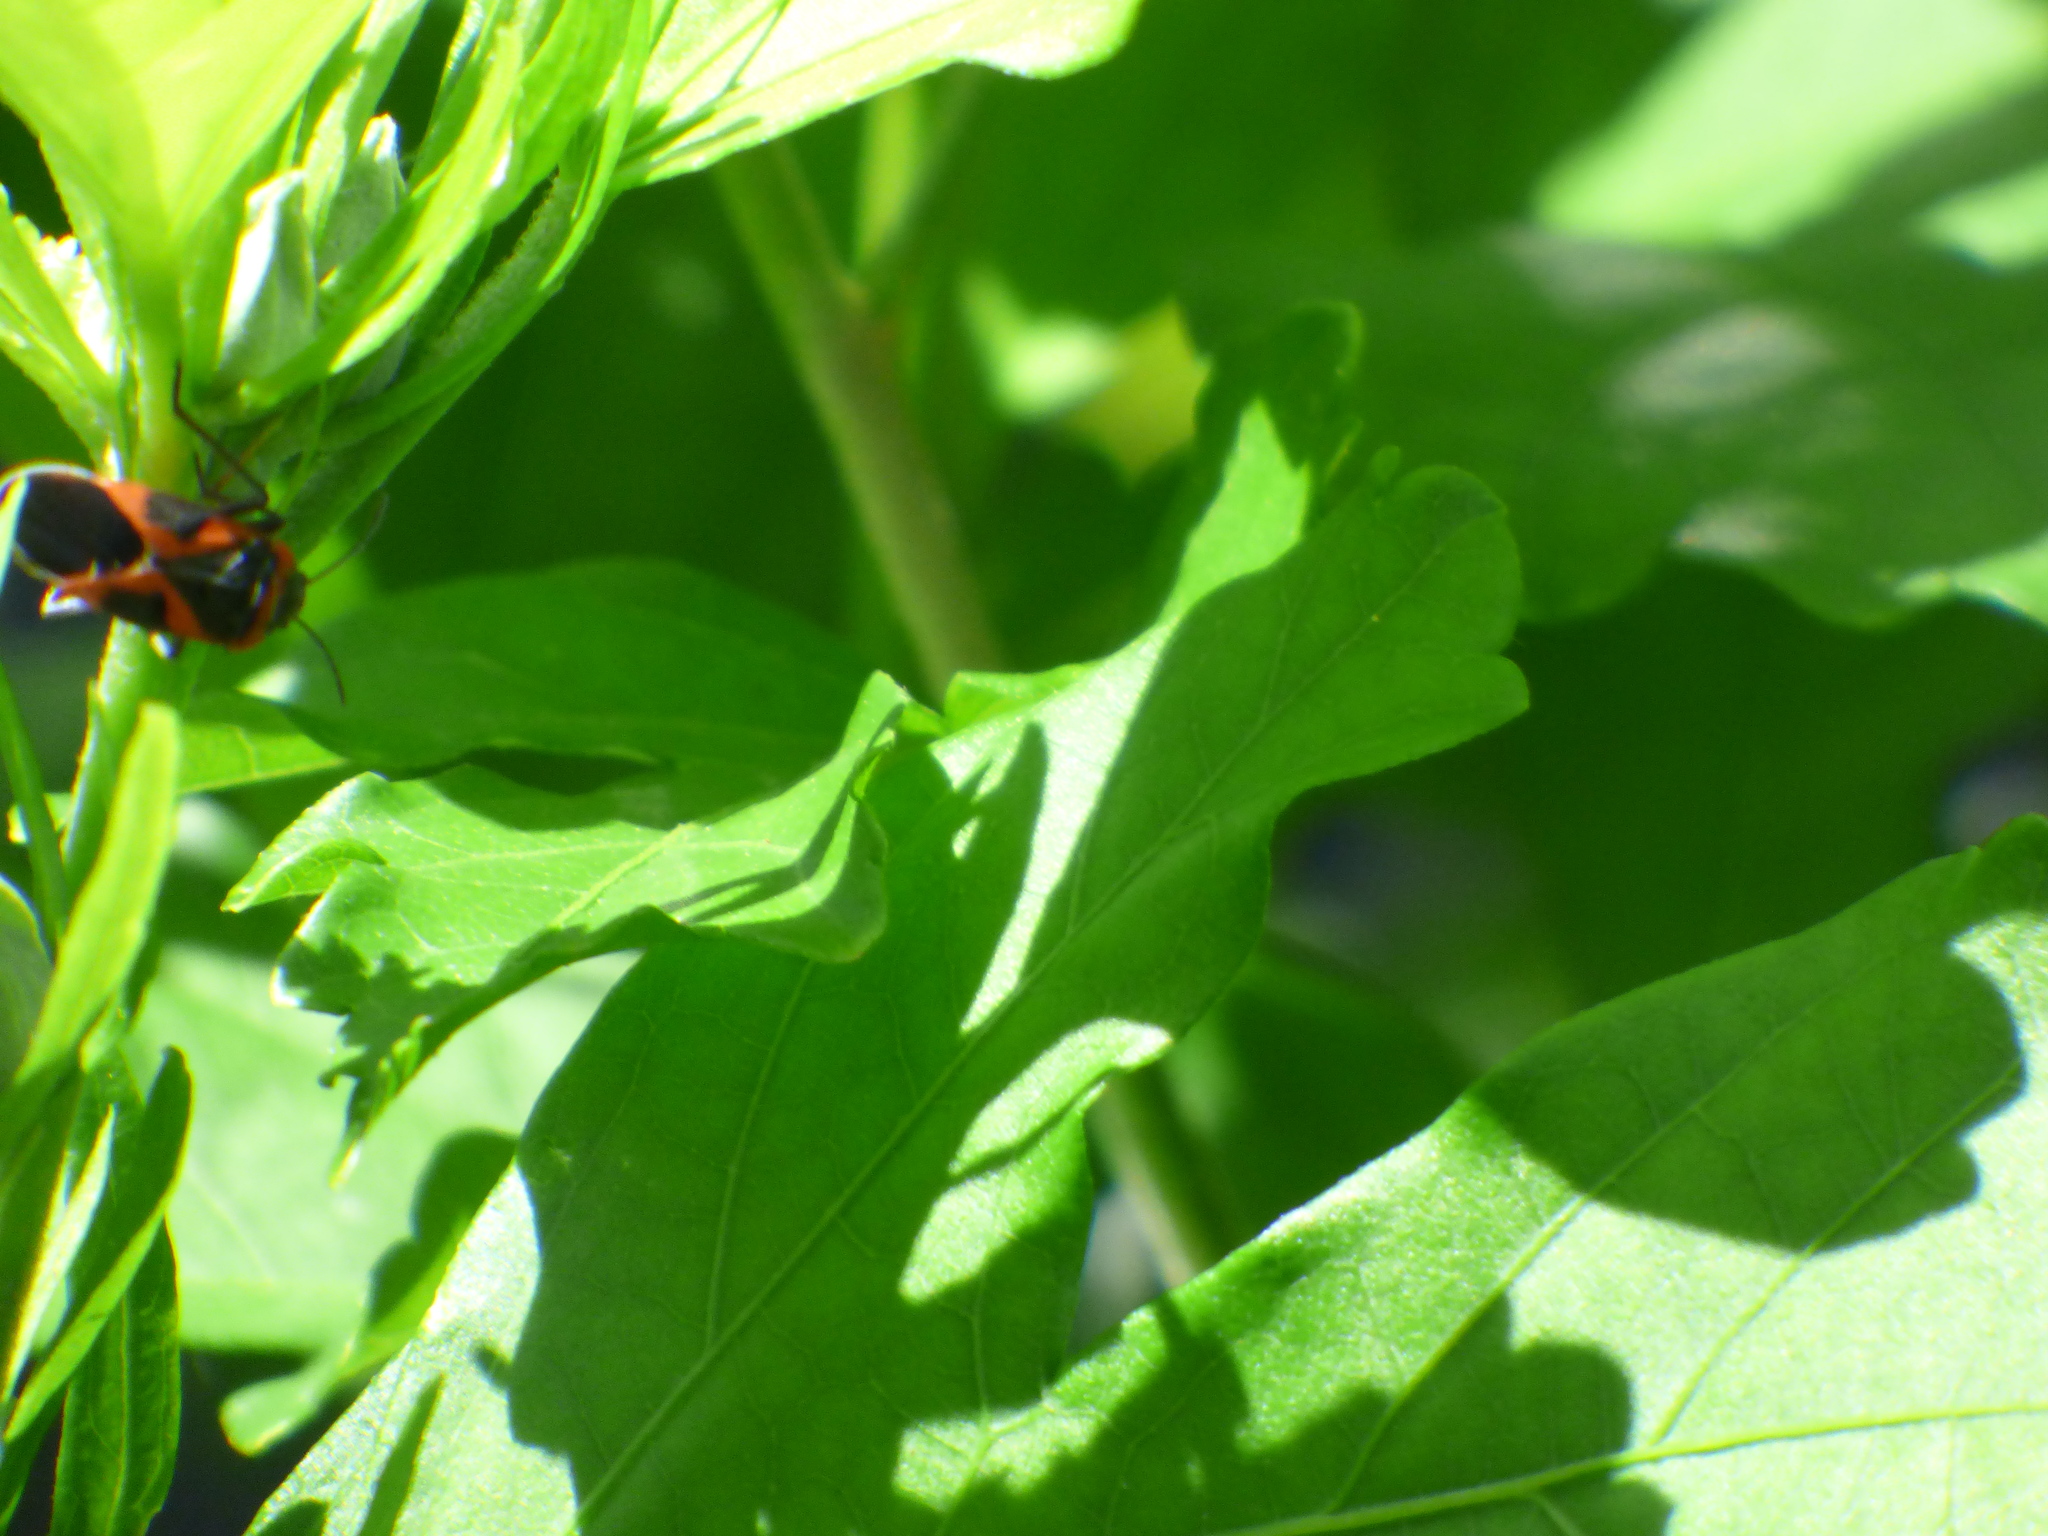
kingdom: Animalia
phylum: Arthropoda
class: Insecta
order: Hemiptera
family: Lygaeidae
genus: Lygaeus
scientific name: Lygaeus kalmii
